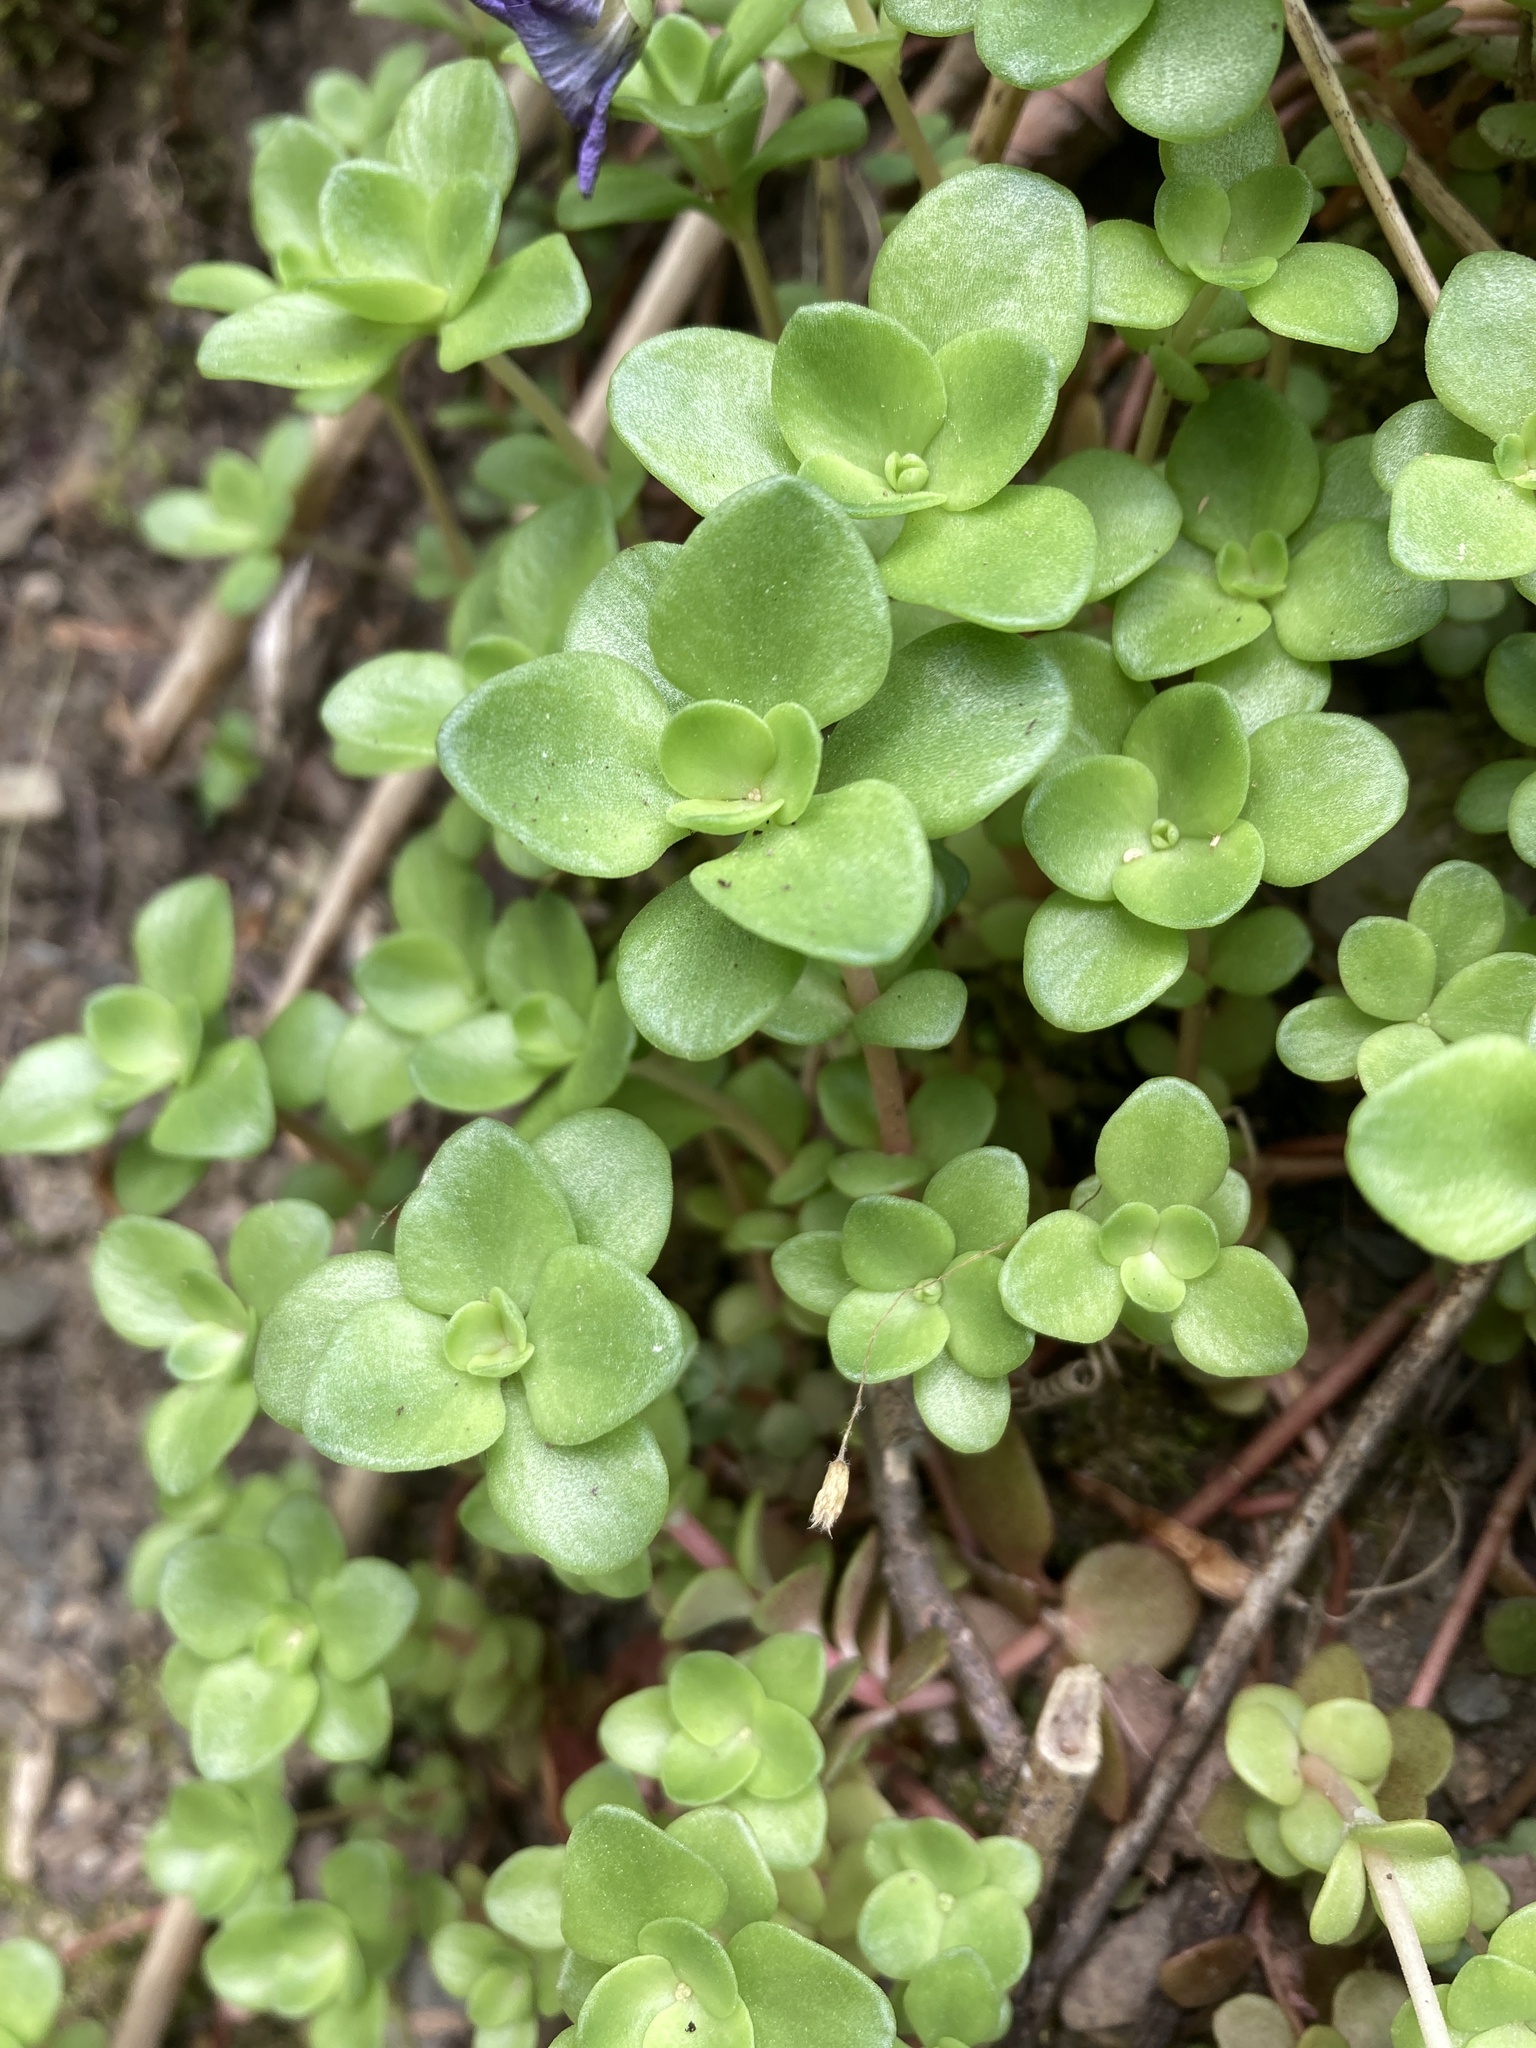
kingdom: Plantae
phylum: Tracheophyta
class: Magnoliopsida
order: Saxifragales
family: Crassulaceae
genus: Sedum
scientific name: Sedum ternatum
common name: Wild stonecrop
